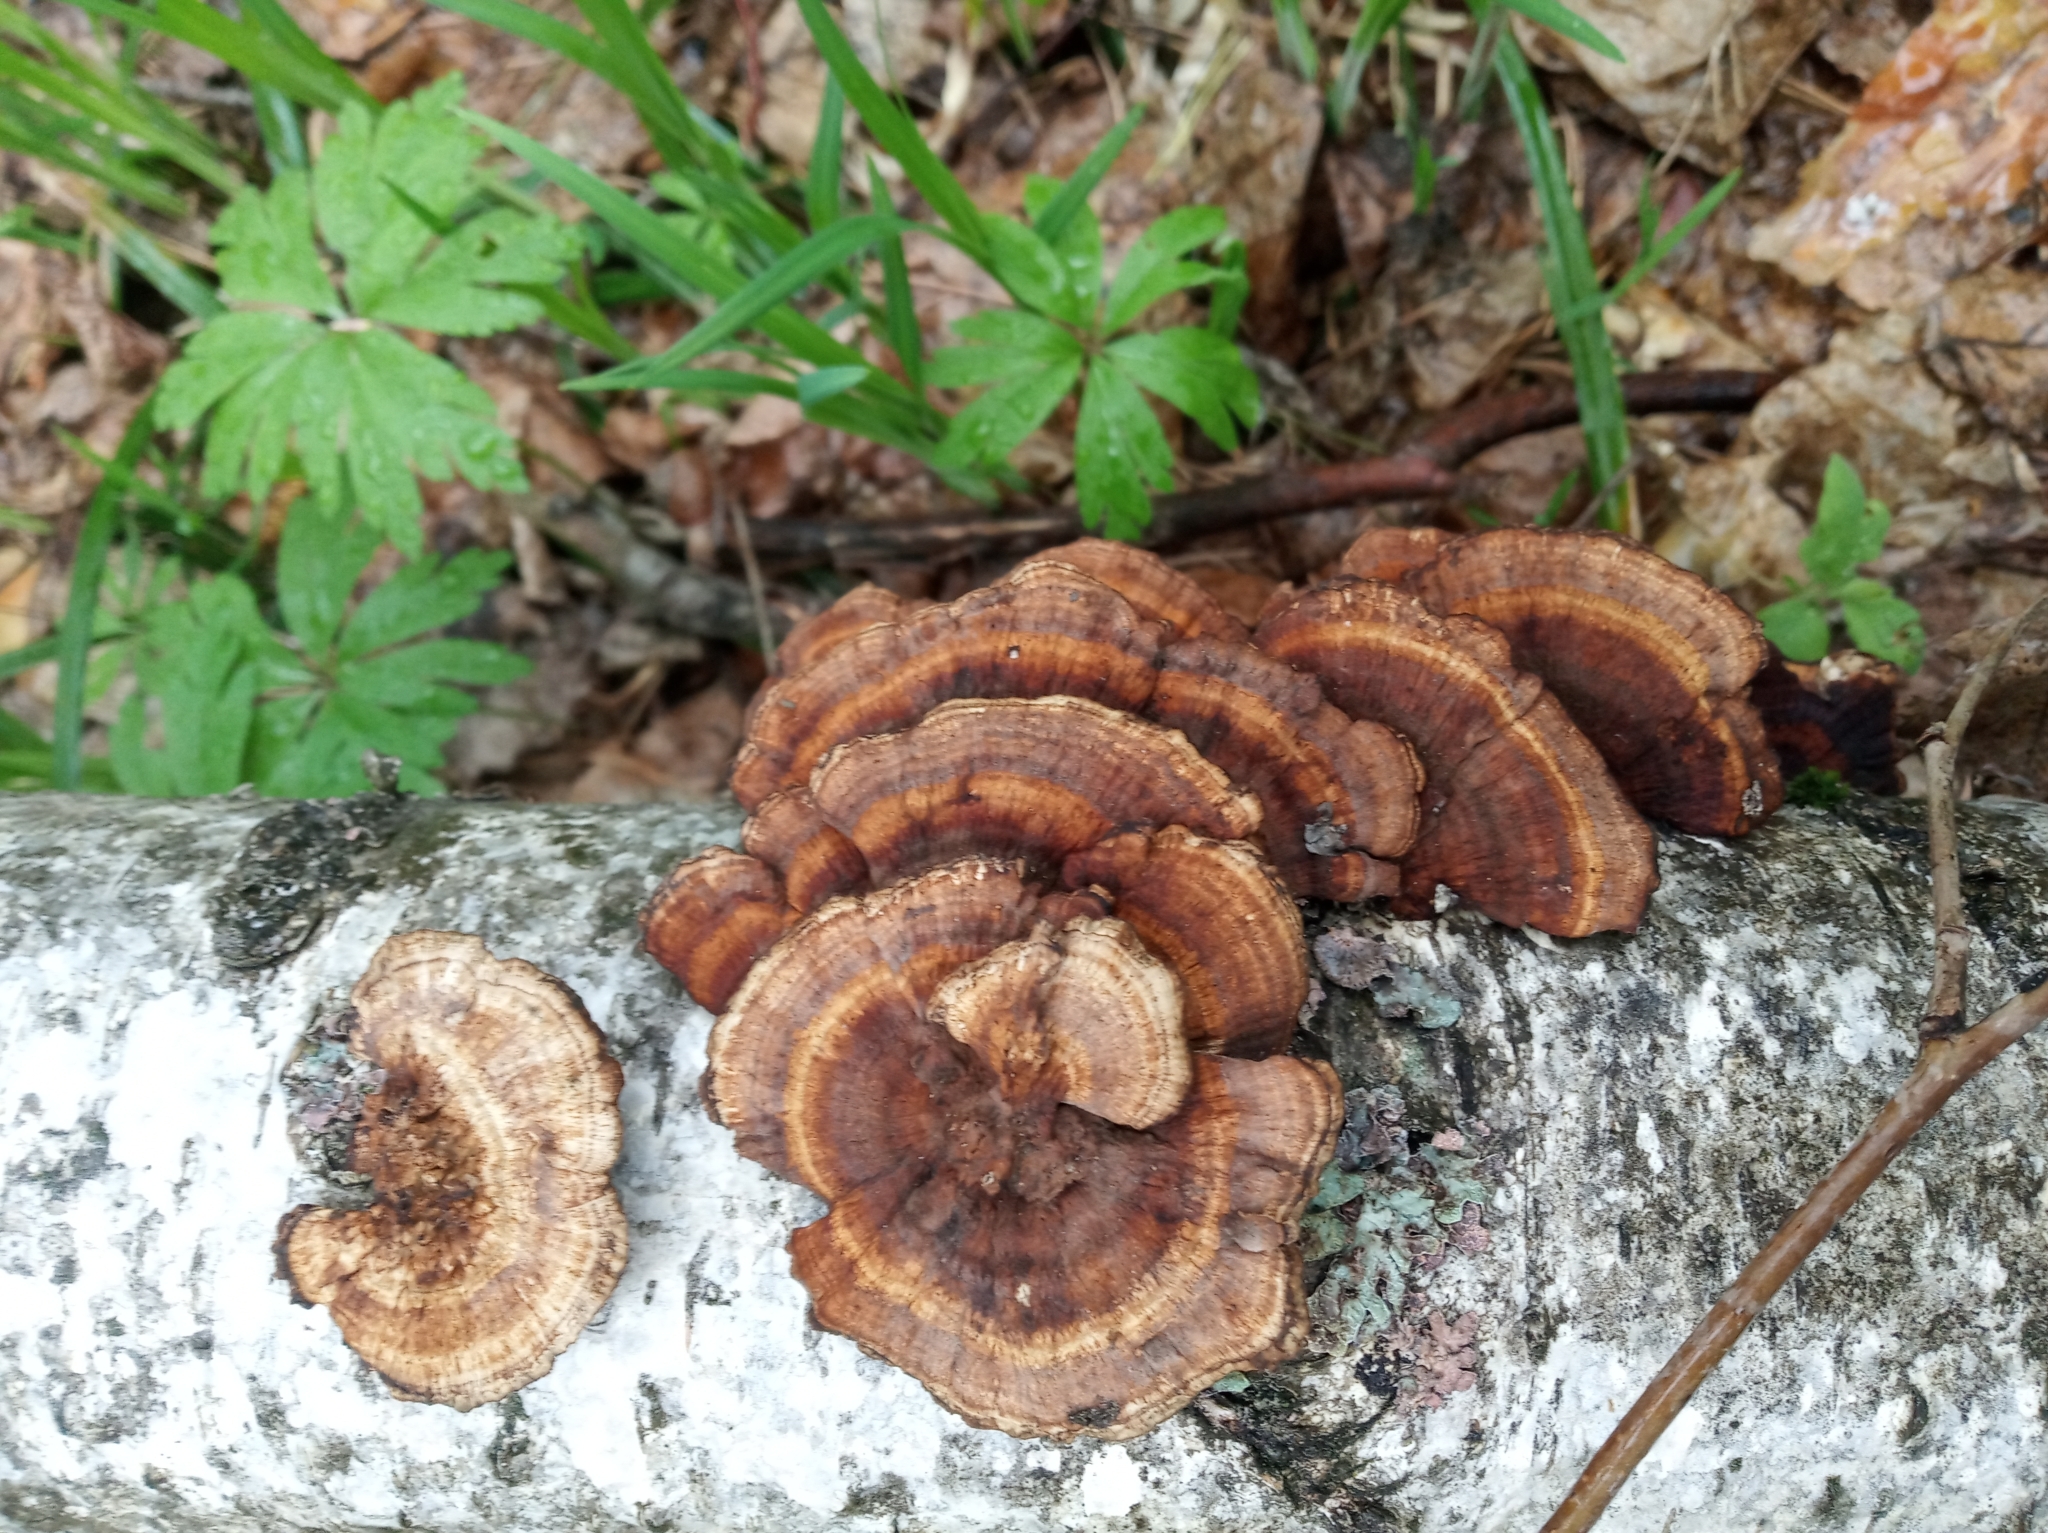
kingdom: Fungi
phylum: Basidiomycota
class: Agaricomycetes
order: Polyporales
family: Polyporaceae
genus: Daedaleopsis
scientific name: Daedaleopsis tricolor
